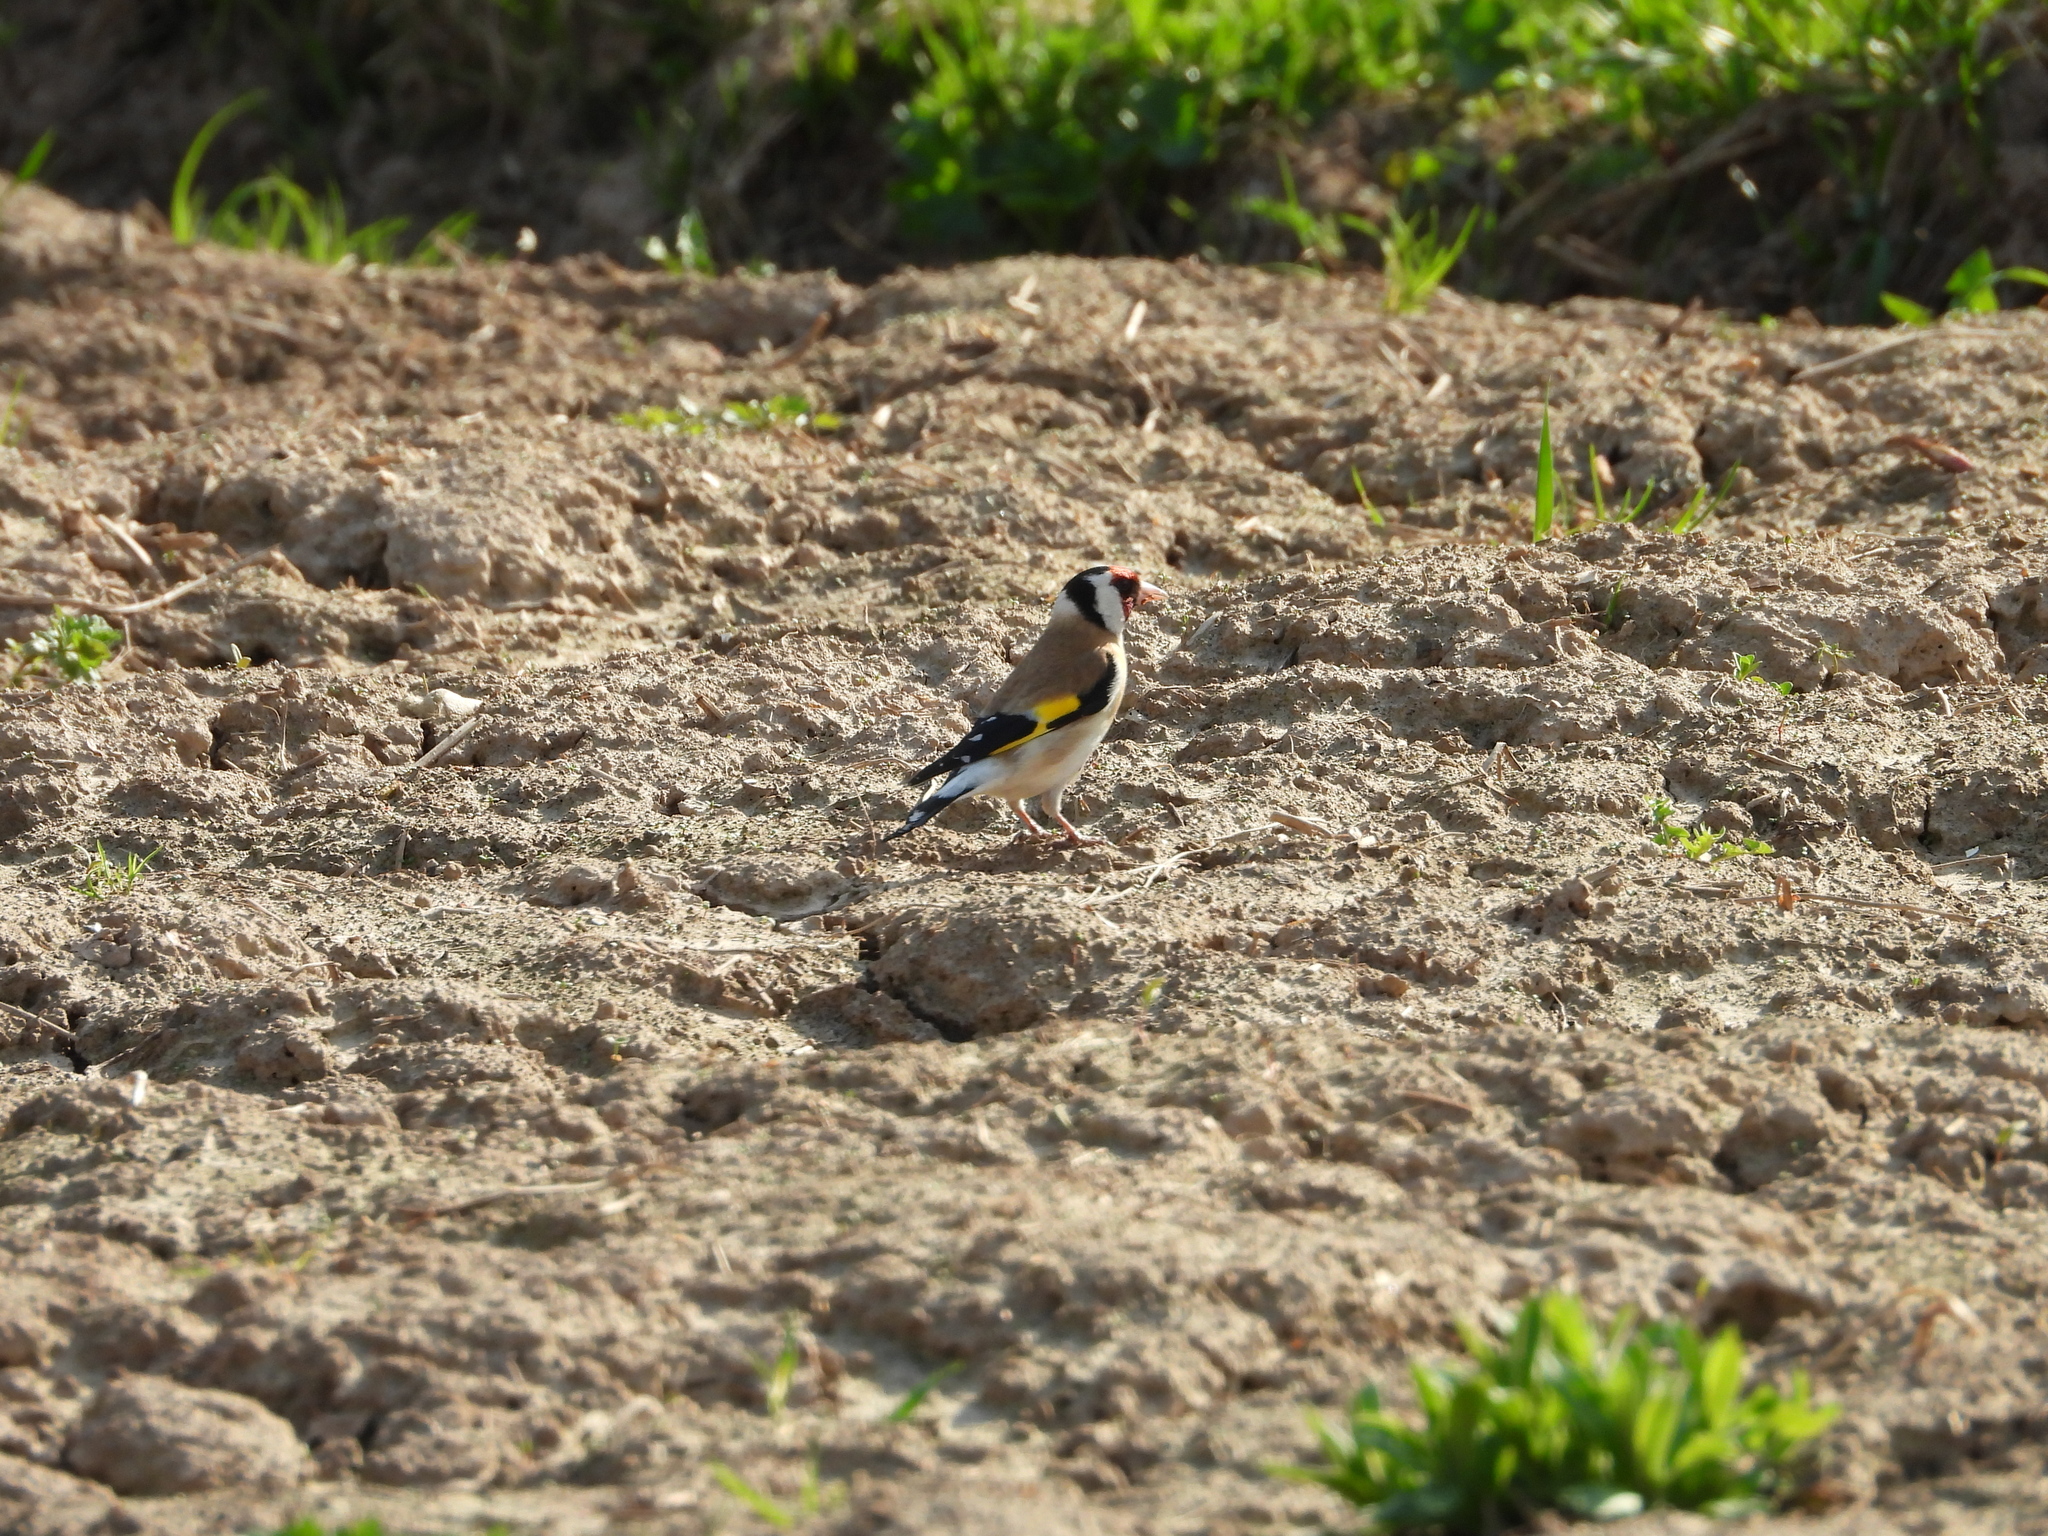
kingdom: Animalia
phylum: Chordata
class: Aves
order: Passeriformes
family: Fringillidae
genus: Carduelis
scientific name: Carduelis carduelis
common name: European goldfinch
